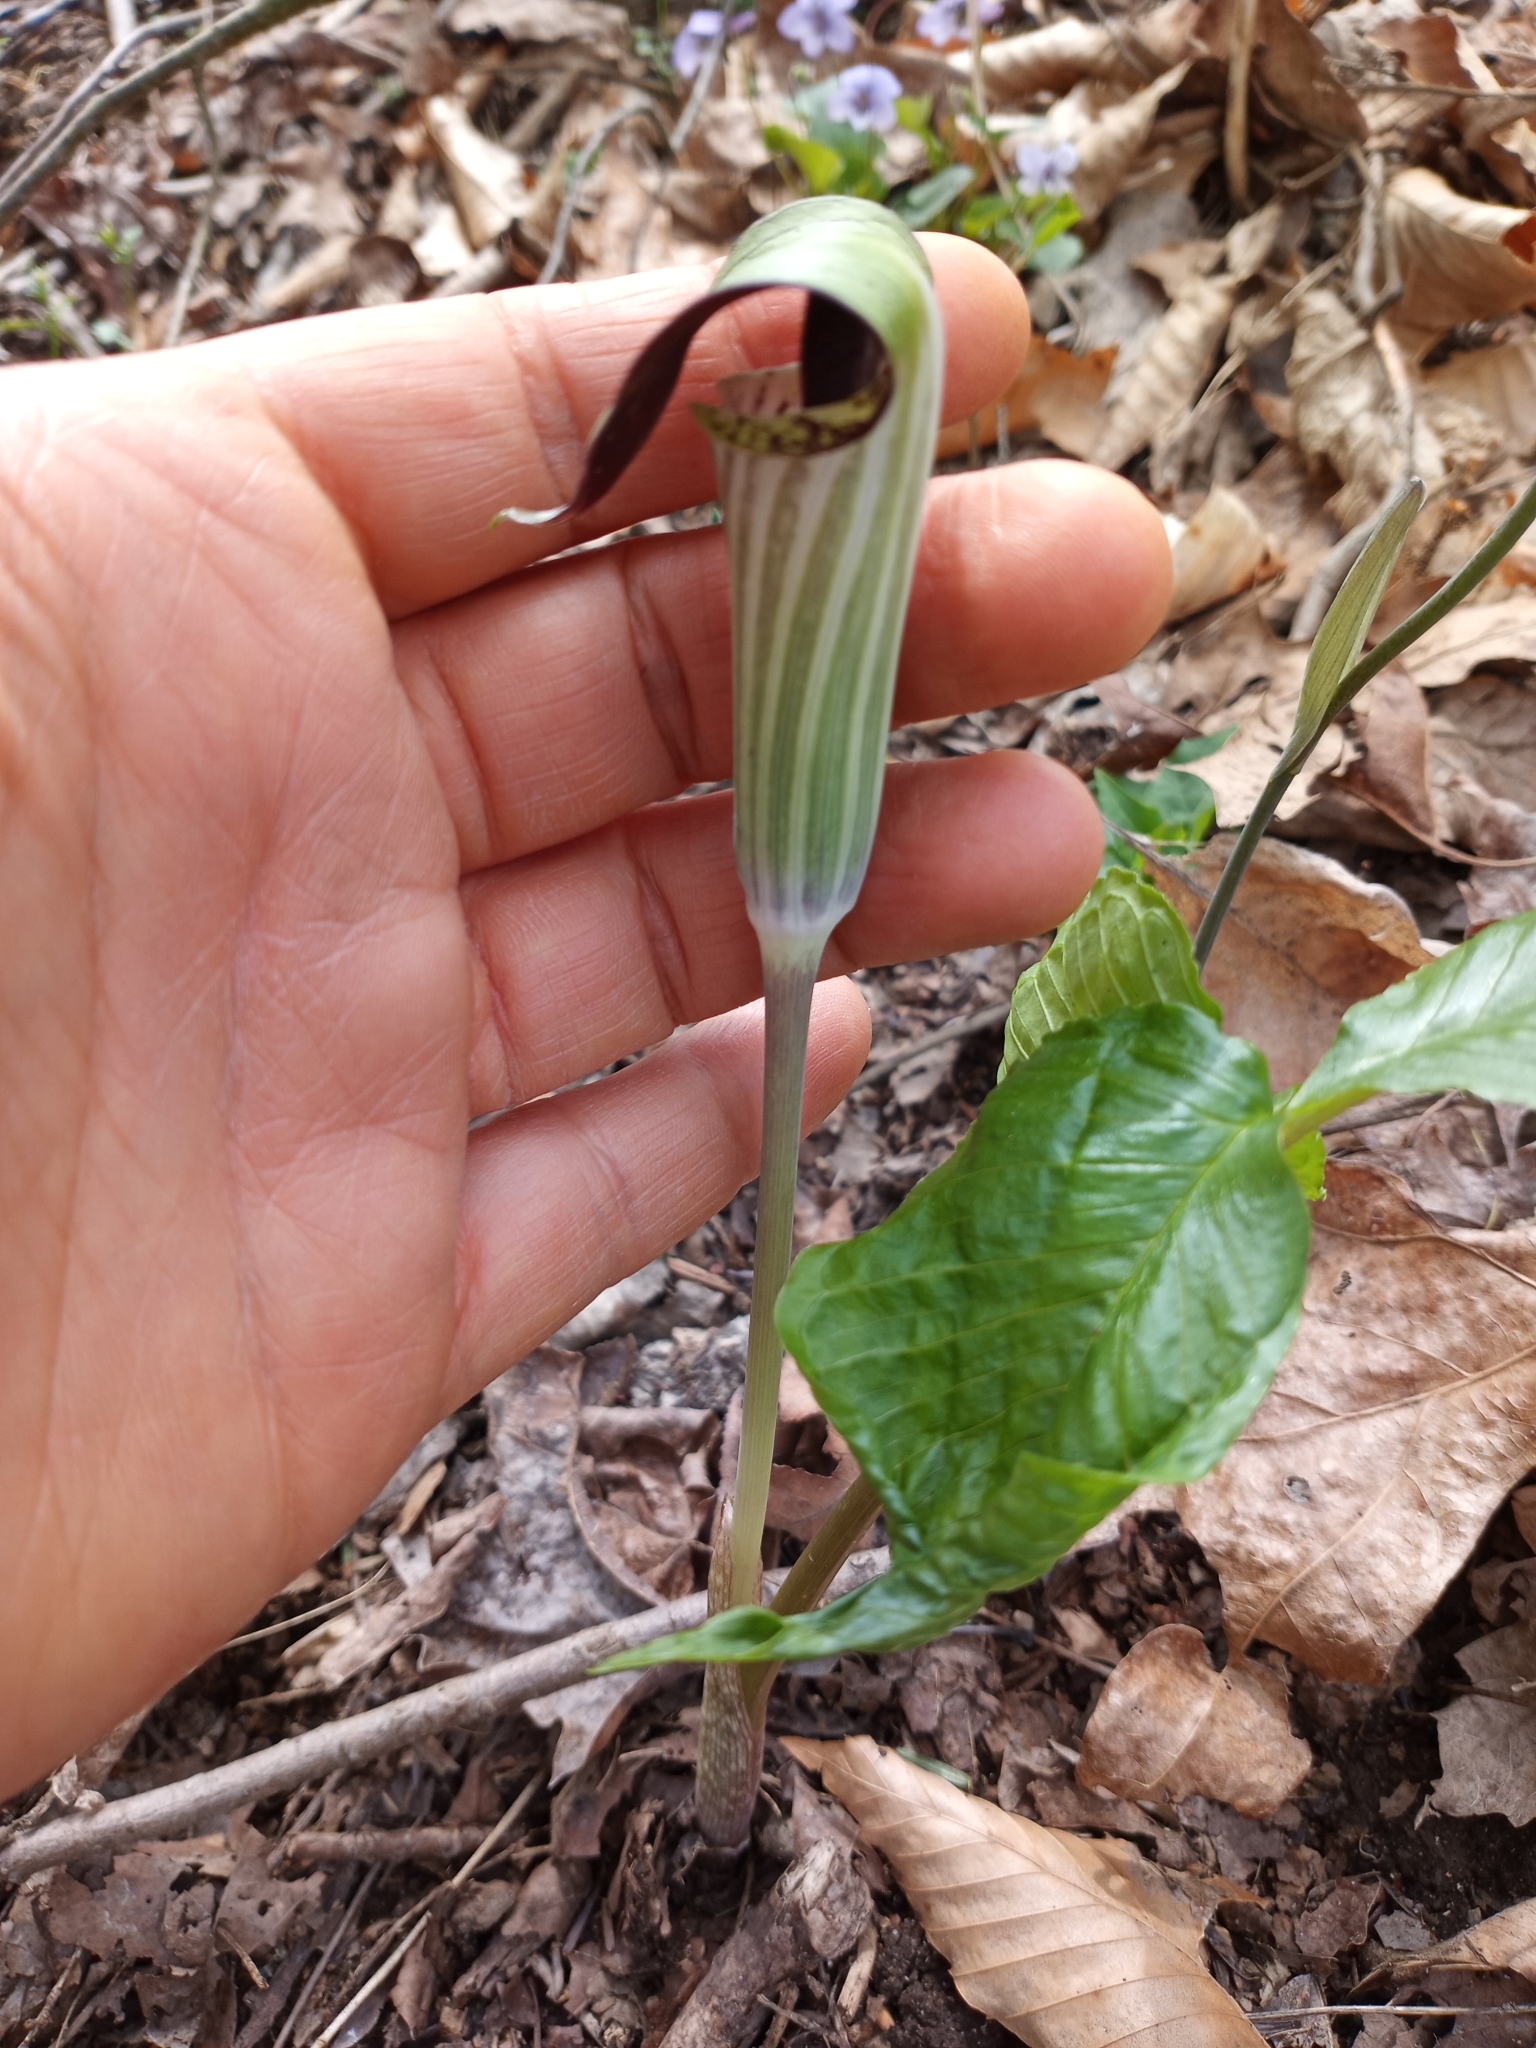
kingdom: Plantae
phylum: Tracheophyta
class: Liliopsida
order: Alismatales
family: Araceae
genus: Arisaema
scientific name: Arisaema triphyllum
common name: Jack-in-the-pulpit
